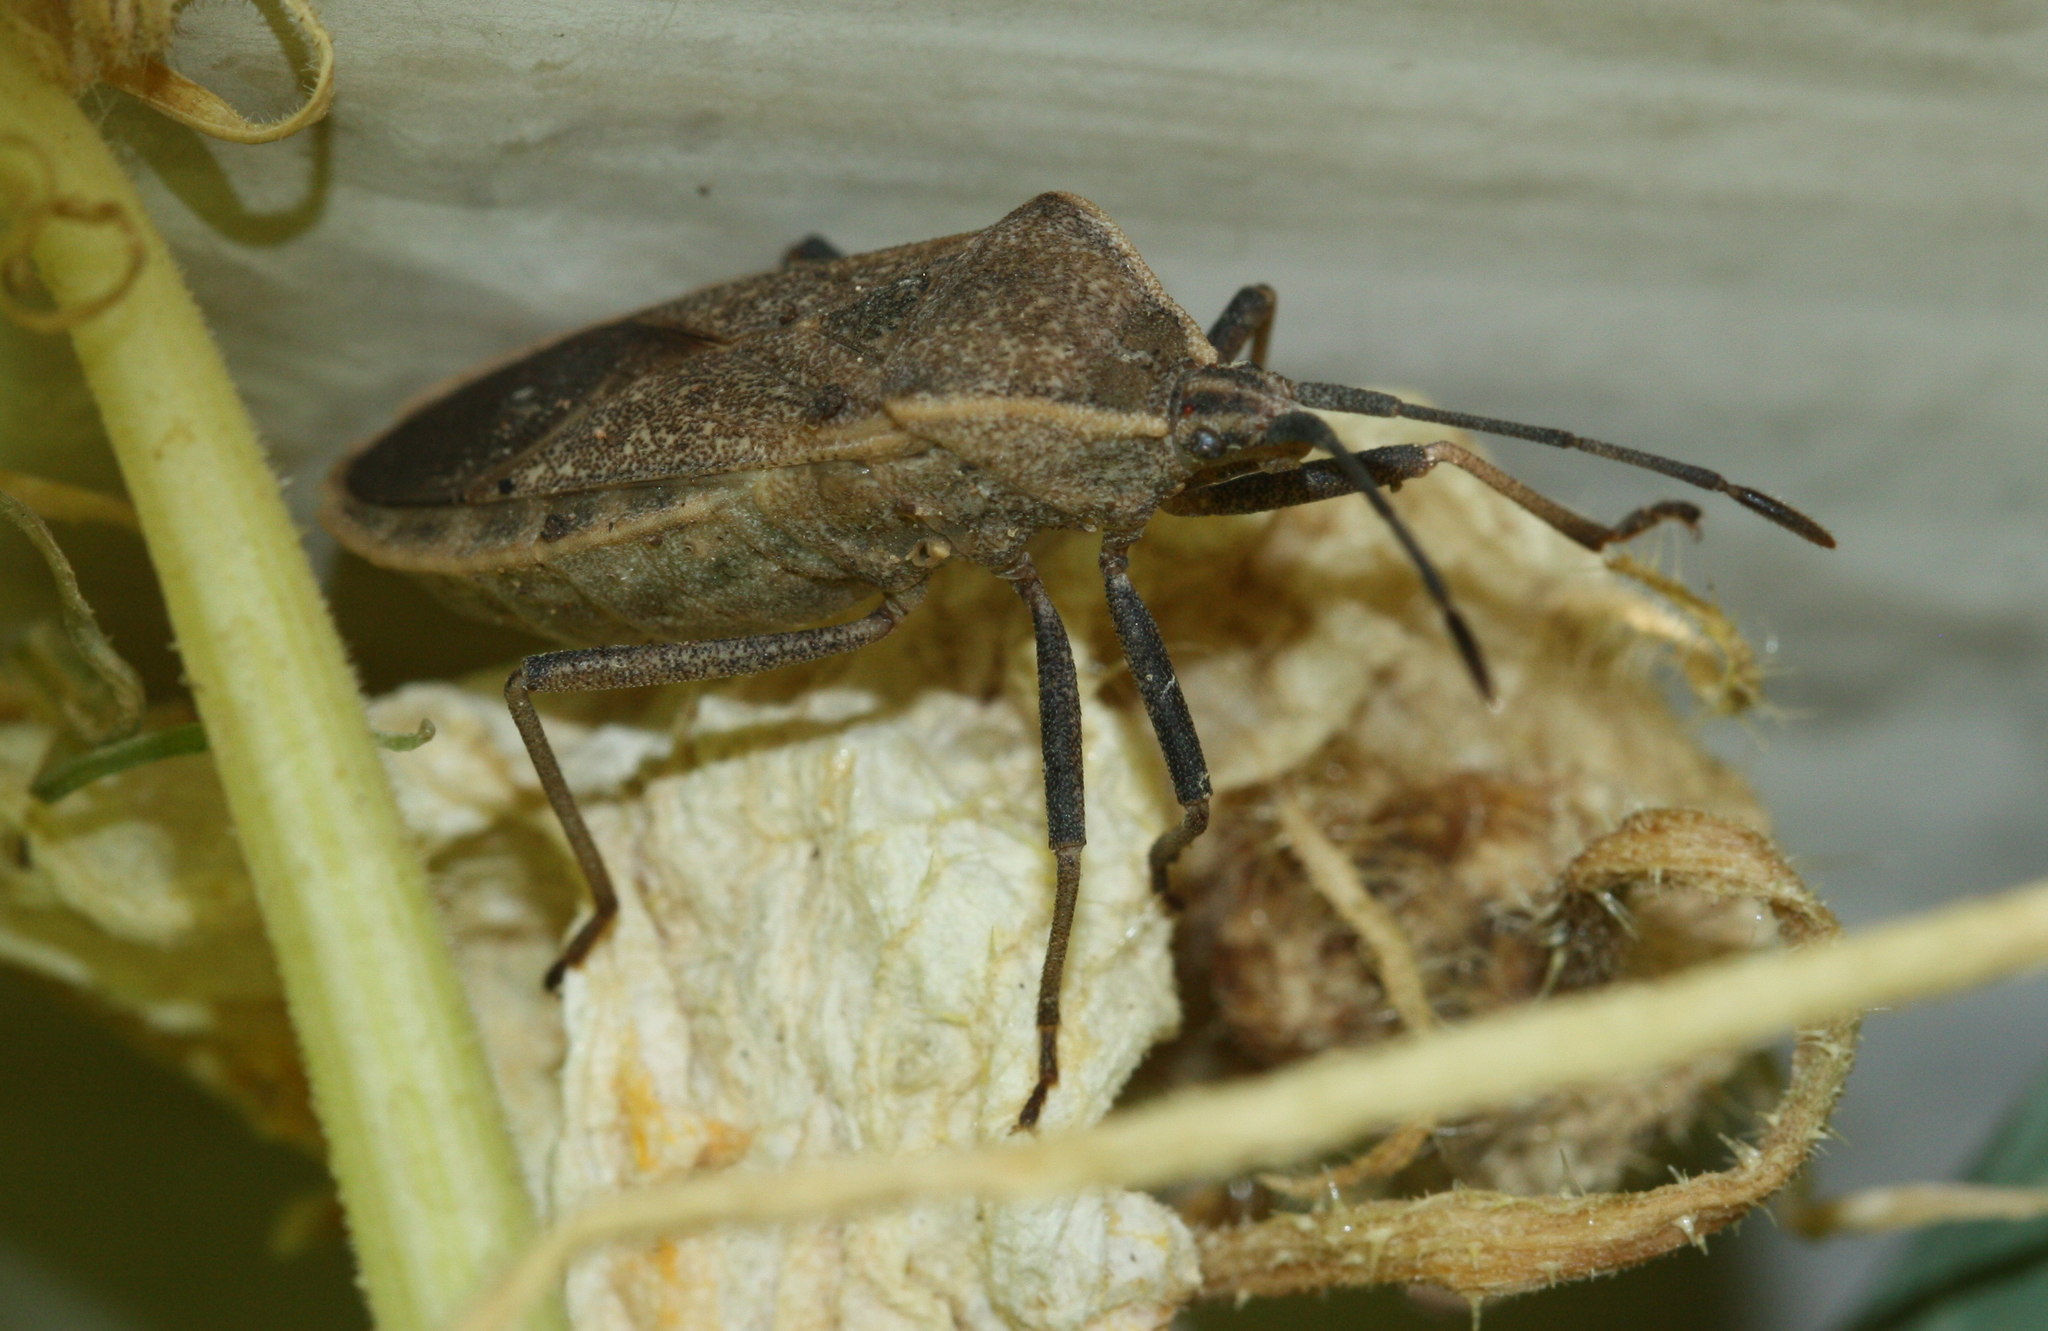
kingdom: Animalia
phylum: Arthropoda
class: Insecta
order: Hemiptera
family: Coreidae
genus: Anasa
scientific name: Anasa tristis
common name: Squash bug
